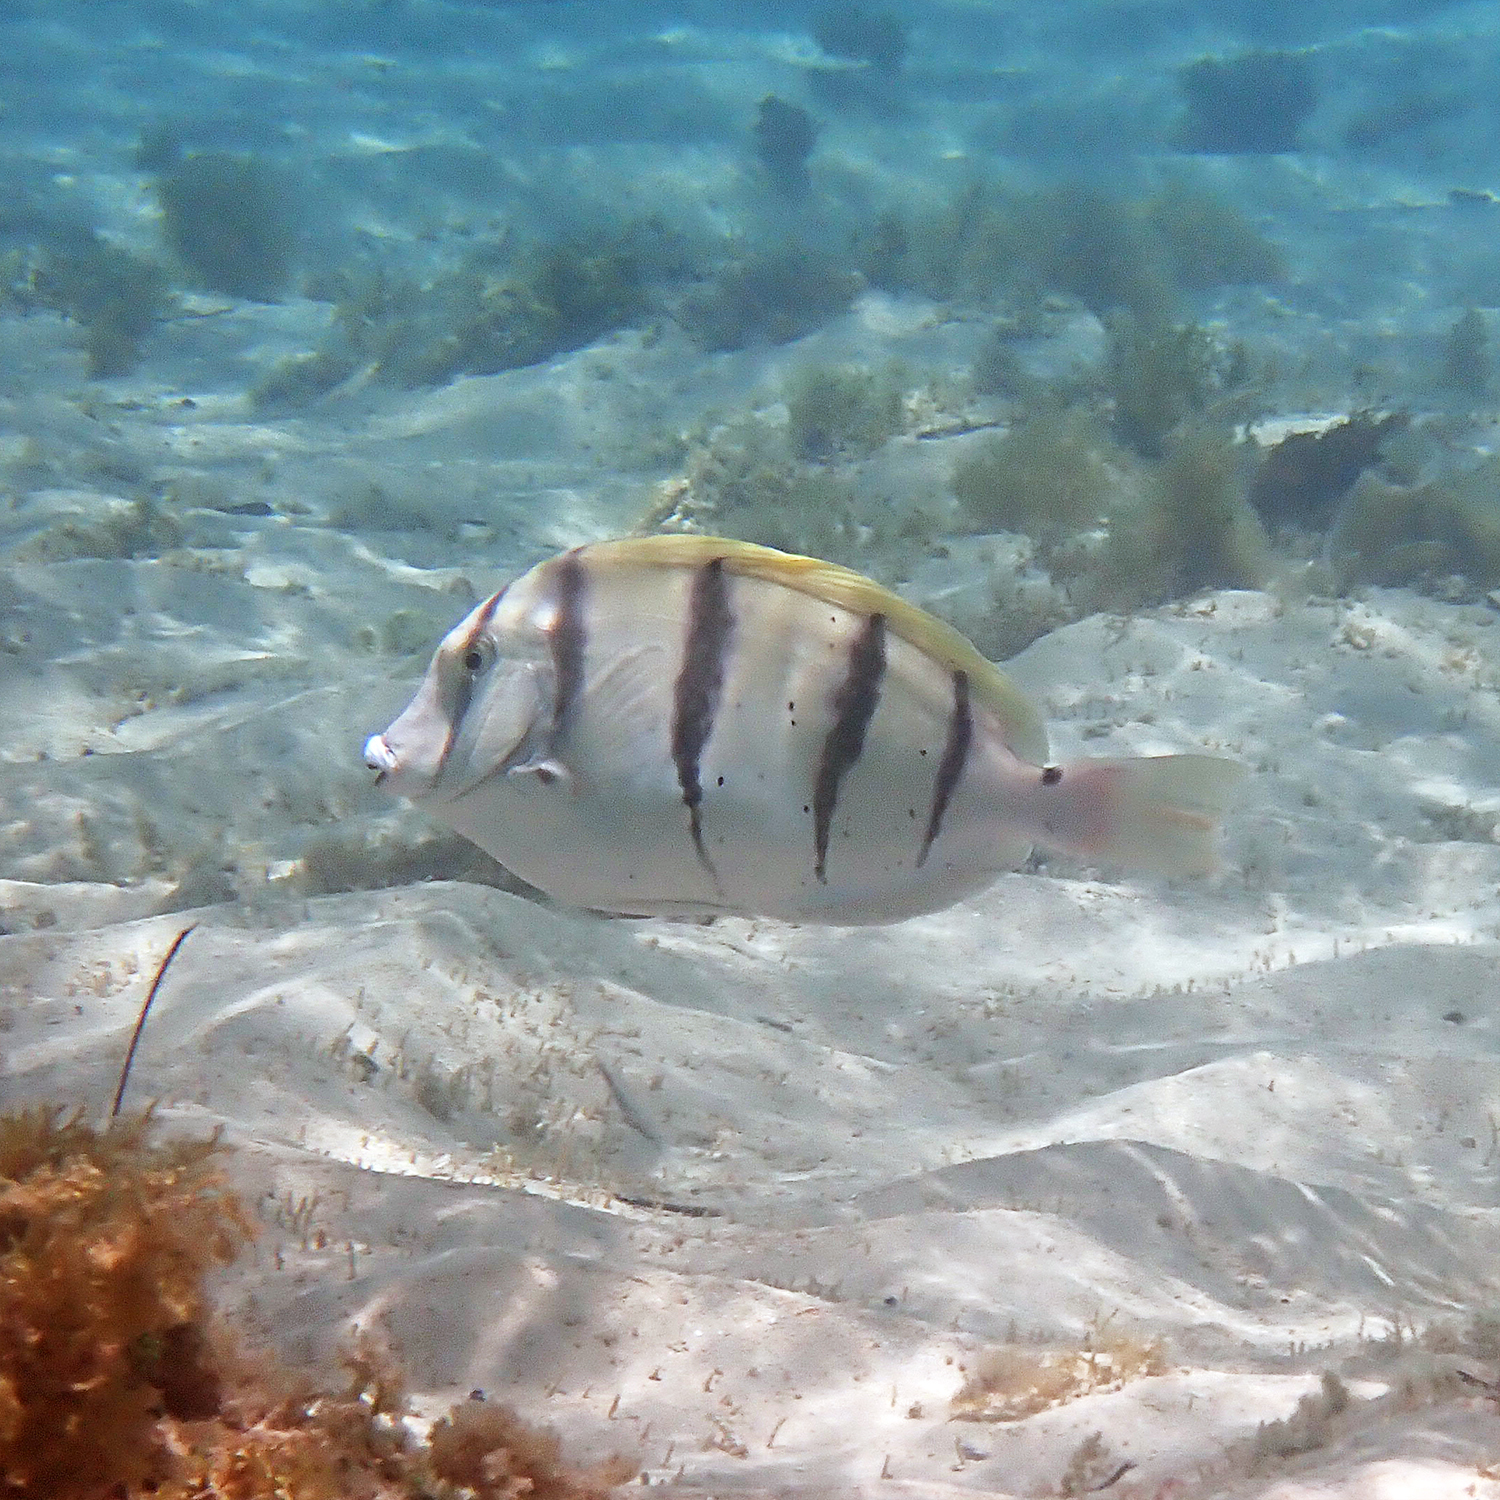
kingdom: Animalia
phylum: Chordata
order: Perciformes
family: Acanthuridae
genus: Acanthurus
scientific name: Acanthurus triostegus
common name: Convict surgeonfish
